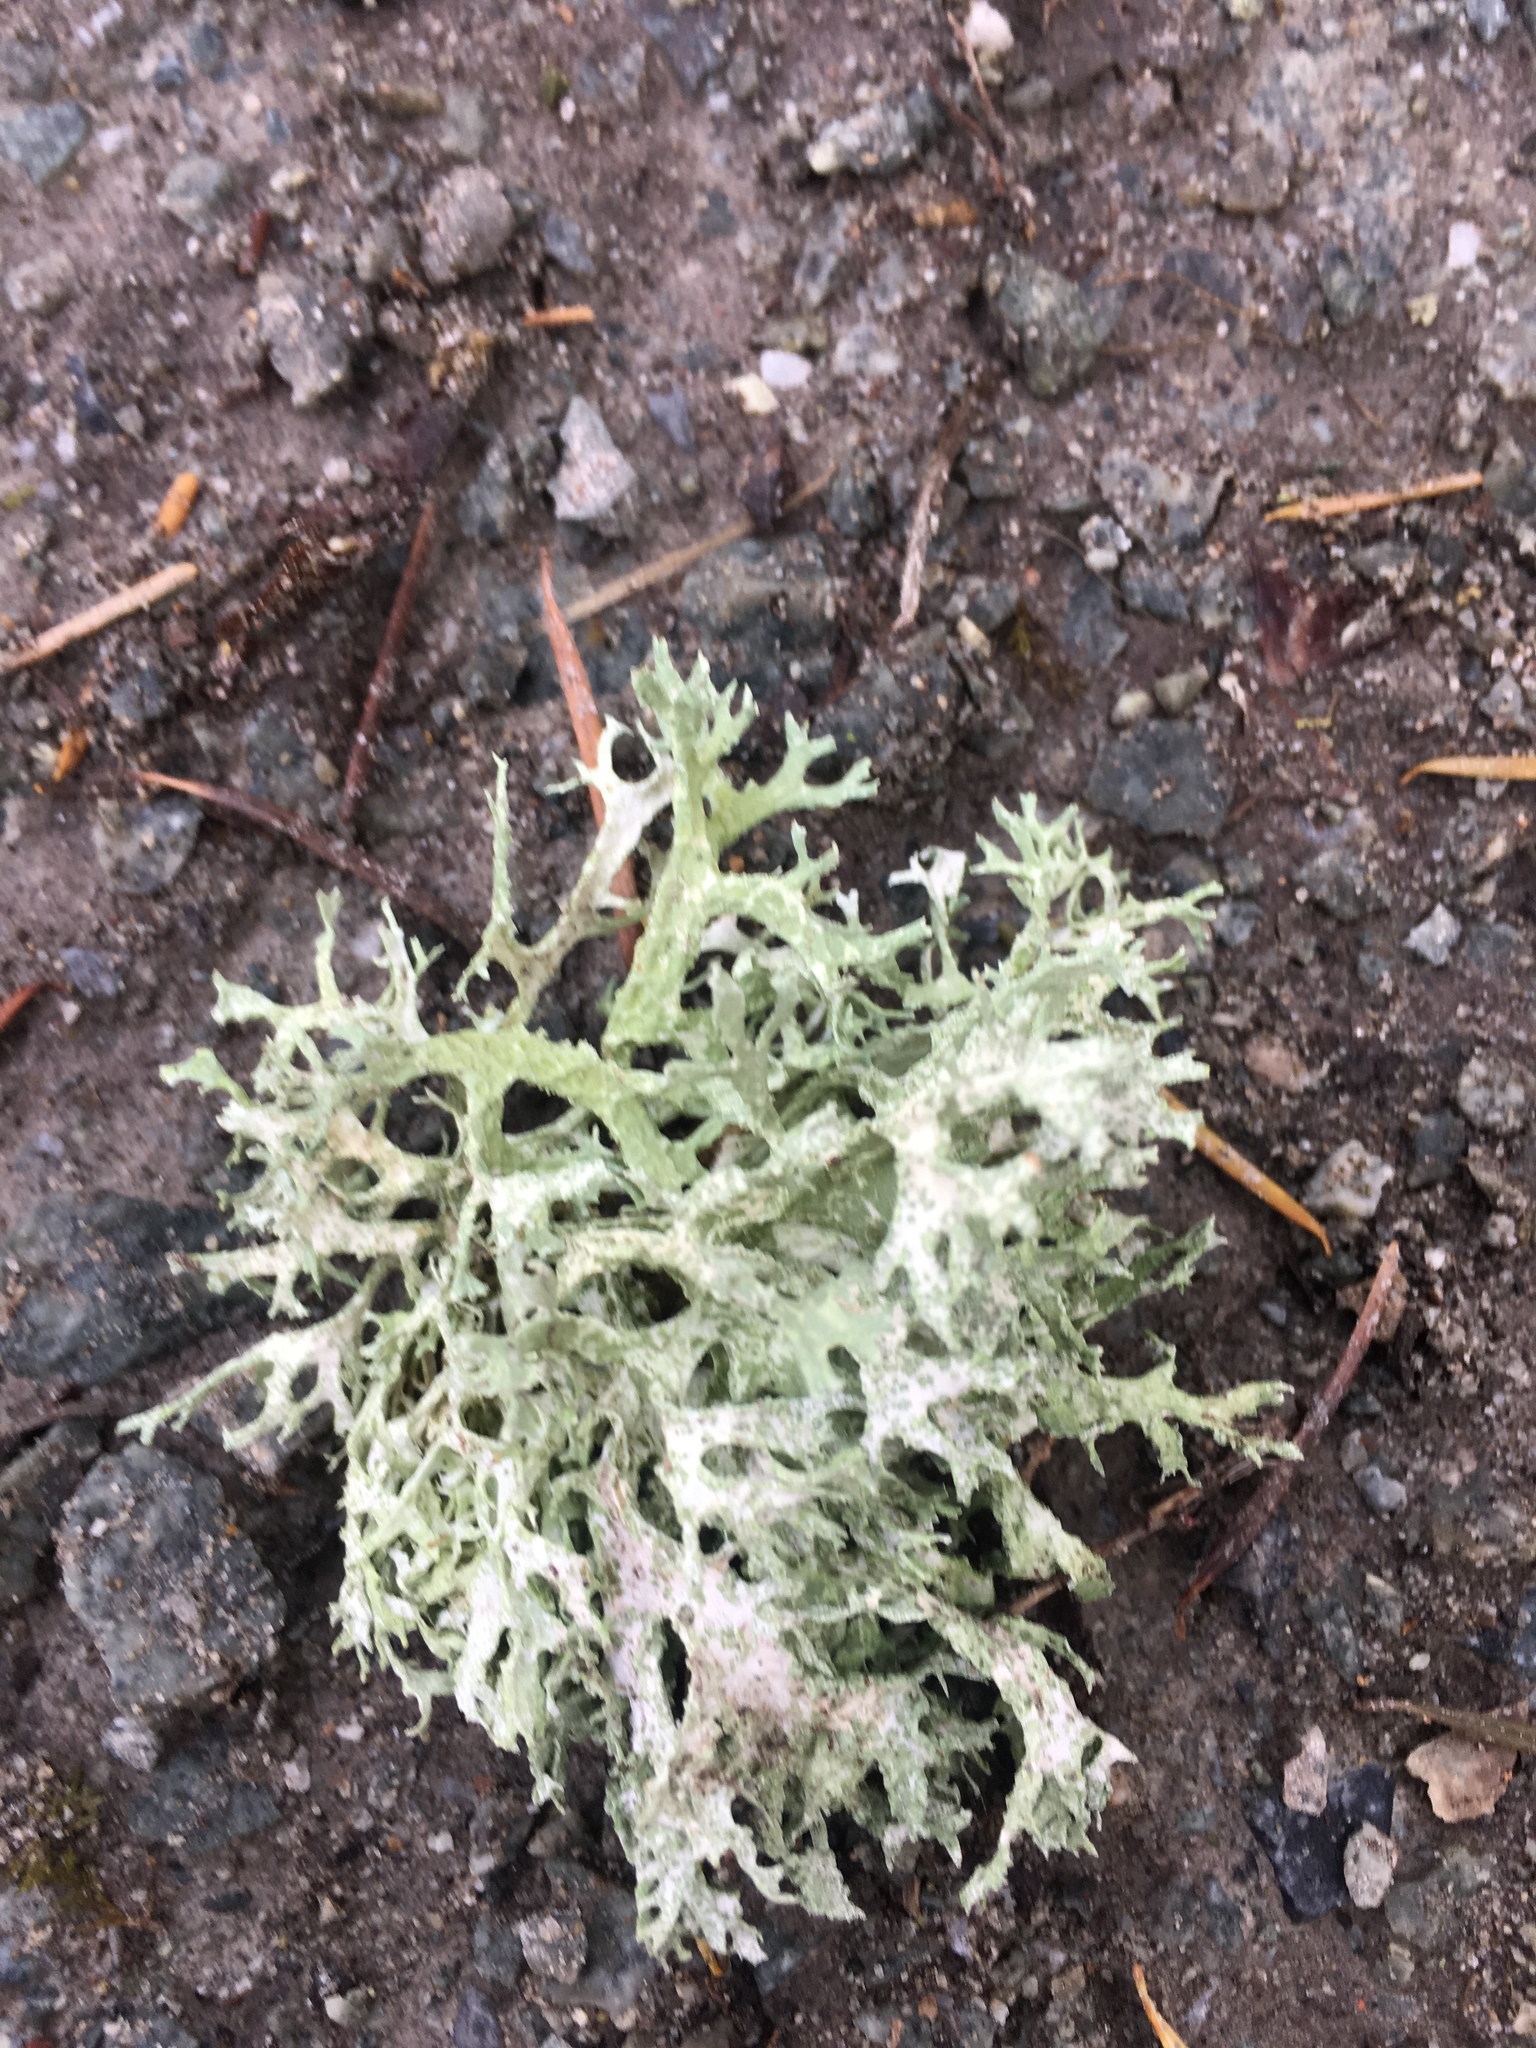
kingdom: Fungi
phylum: Ascomycota
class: Lecanoromycetes
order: Lecanorales
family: Parmeliaceae
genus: Evernia
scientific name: Evernia prunastri
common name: Oak moss
